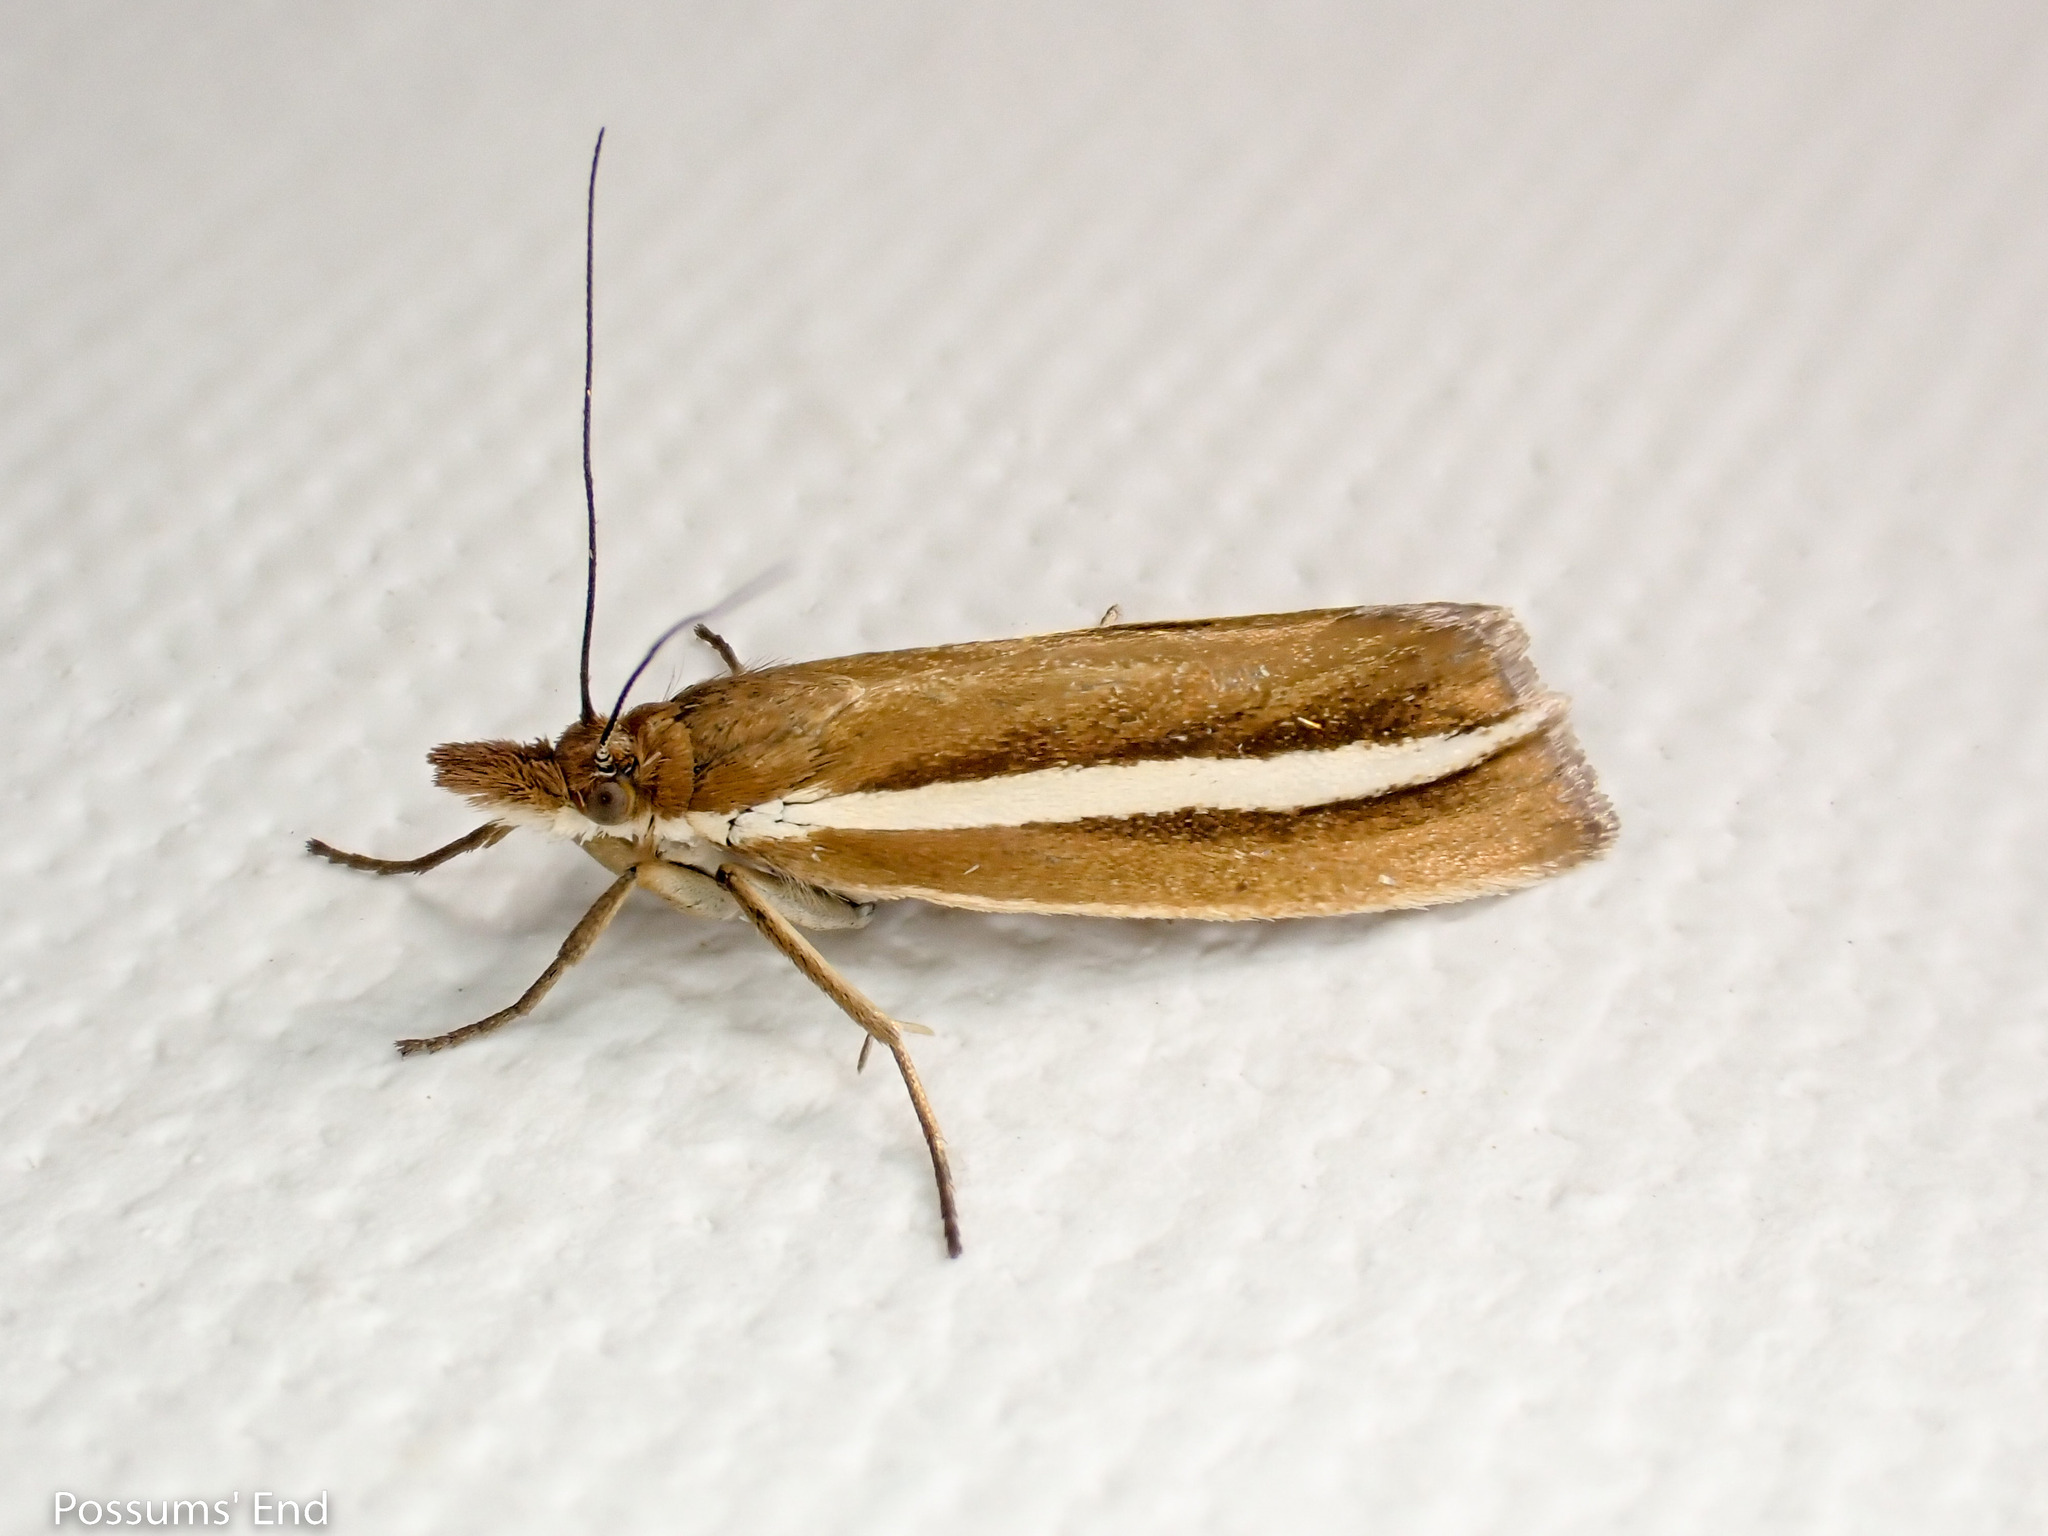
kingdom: Animalia
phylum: Arthropoda
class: Insecta
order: Lepidoptera
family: Crambidae
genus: Orocrambus
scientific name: Orocrambus aethonellus
